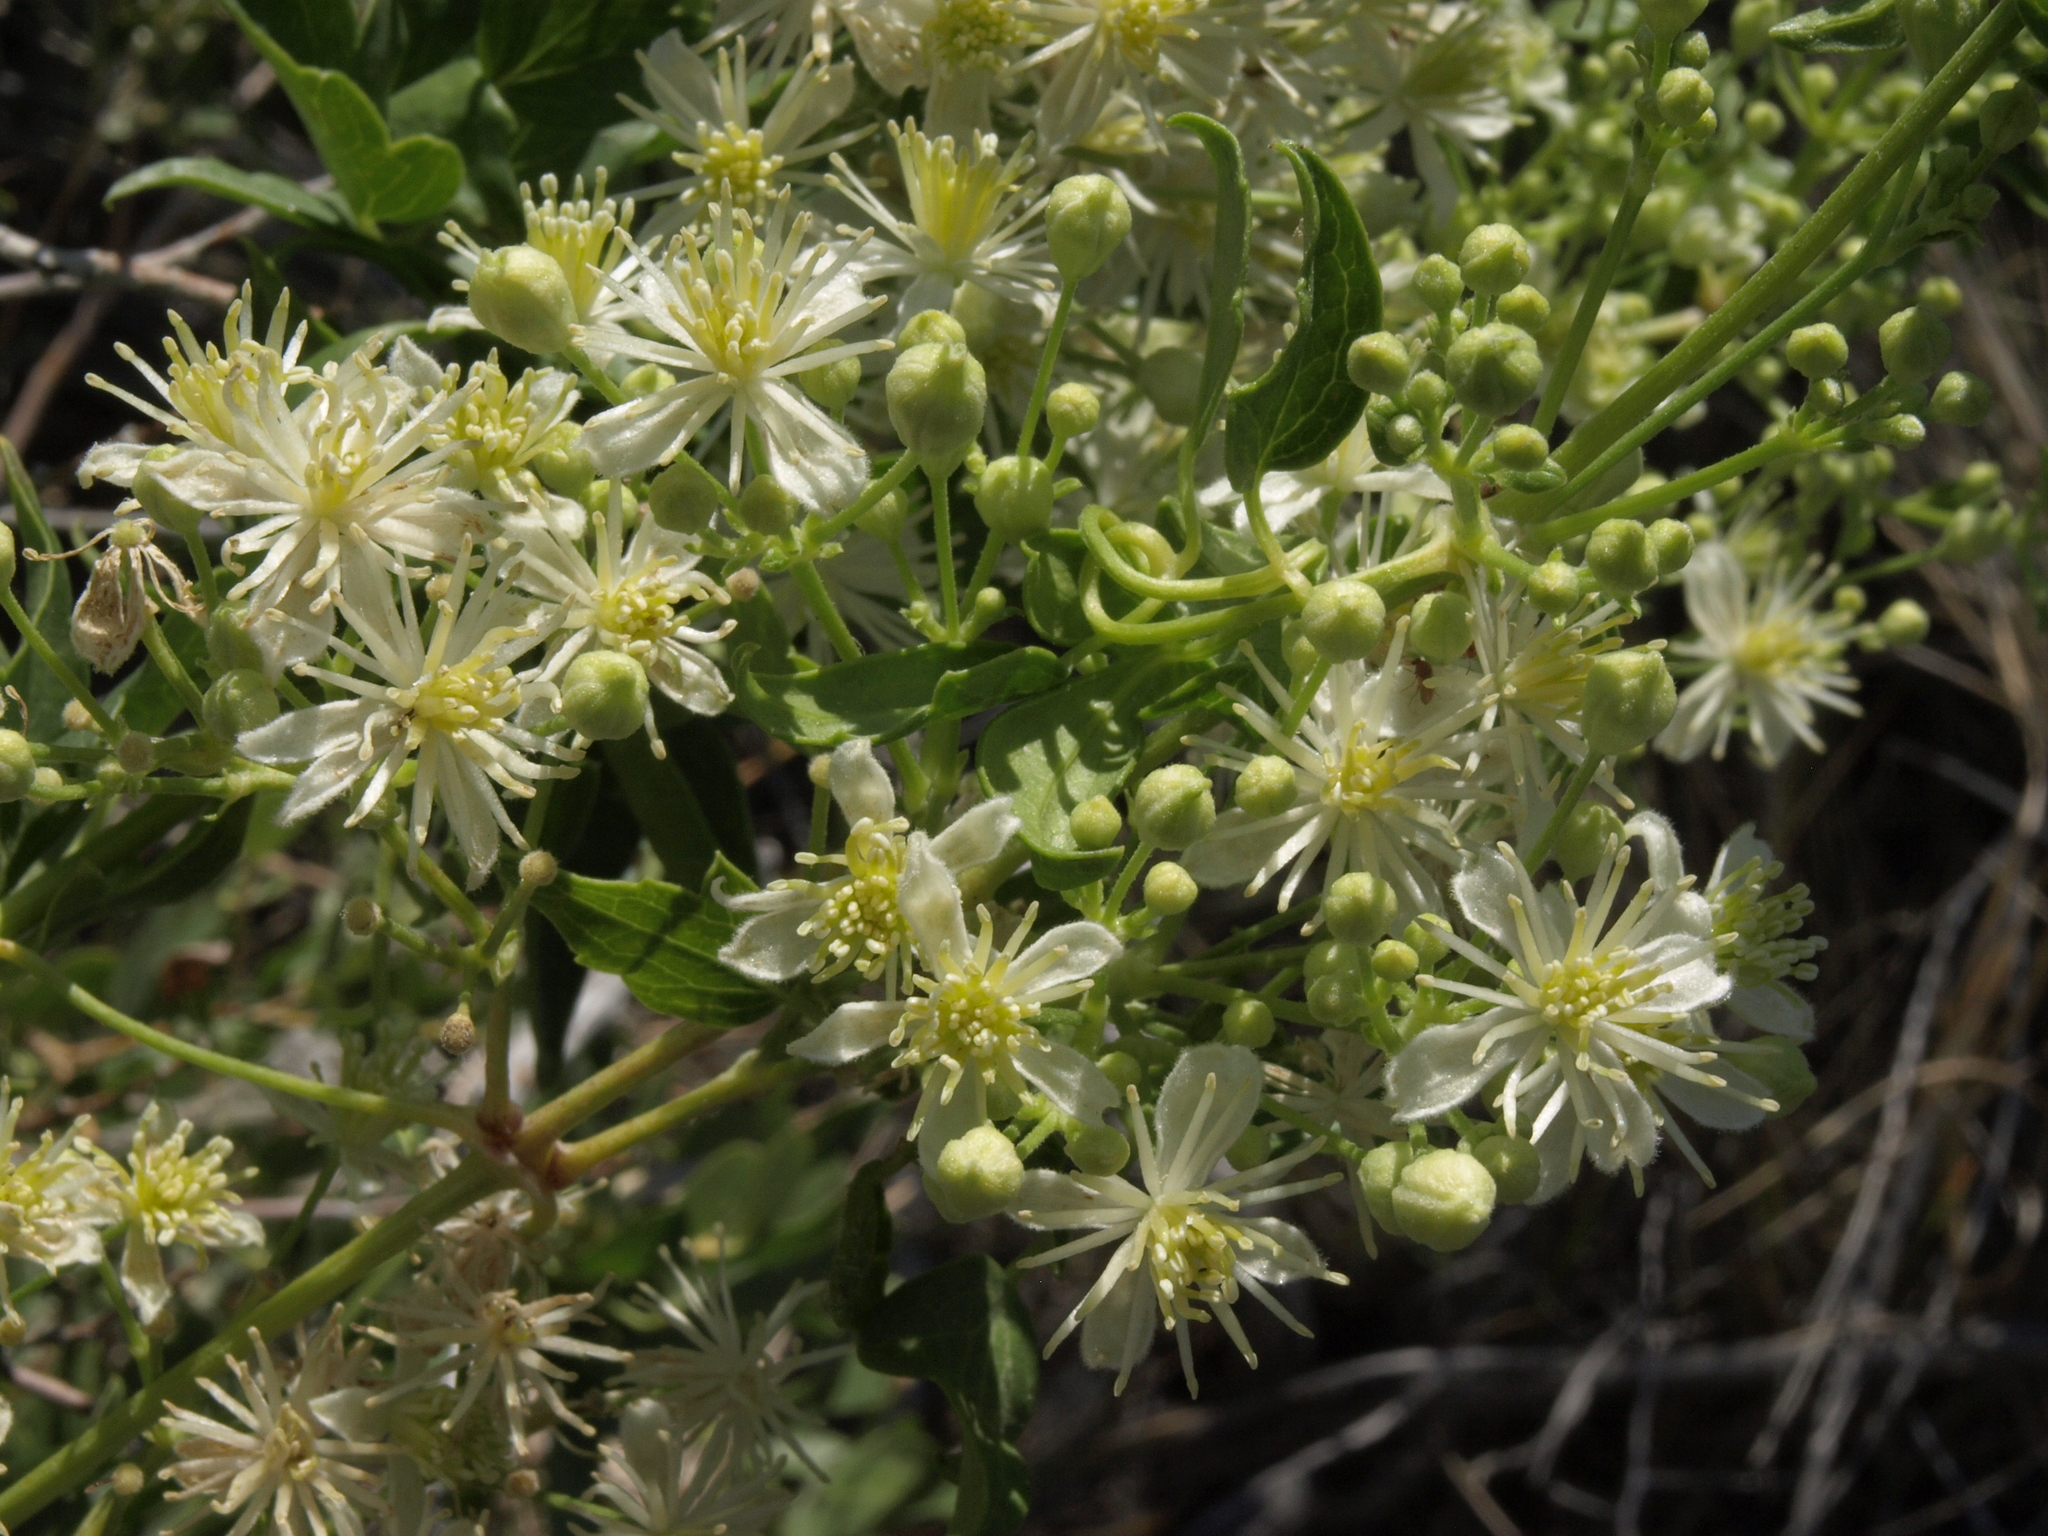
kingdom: Plantae
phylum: Tracheophyta
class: Magnoliopsida
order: Ranunculales
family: Ranunculaceae
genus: Clematis
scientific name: Clematis ligusticifolia
